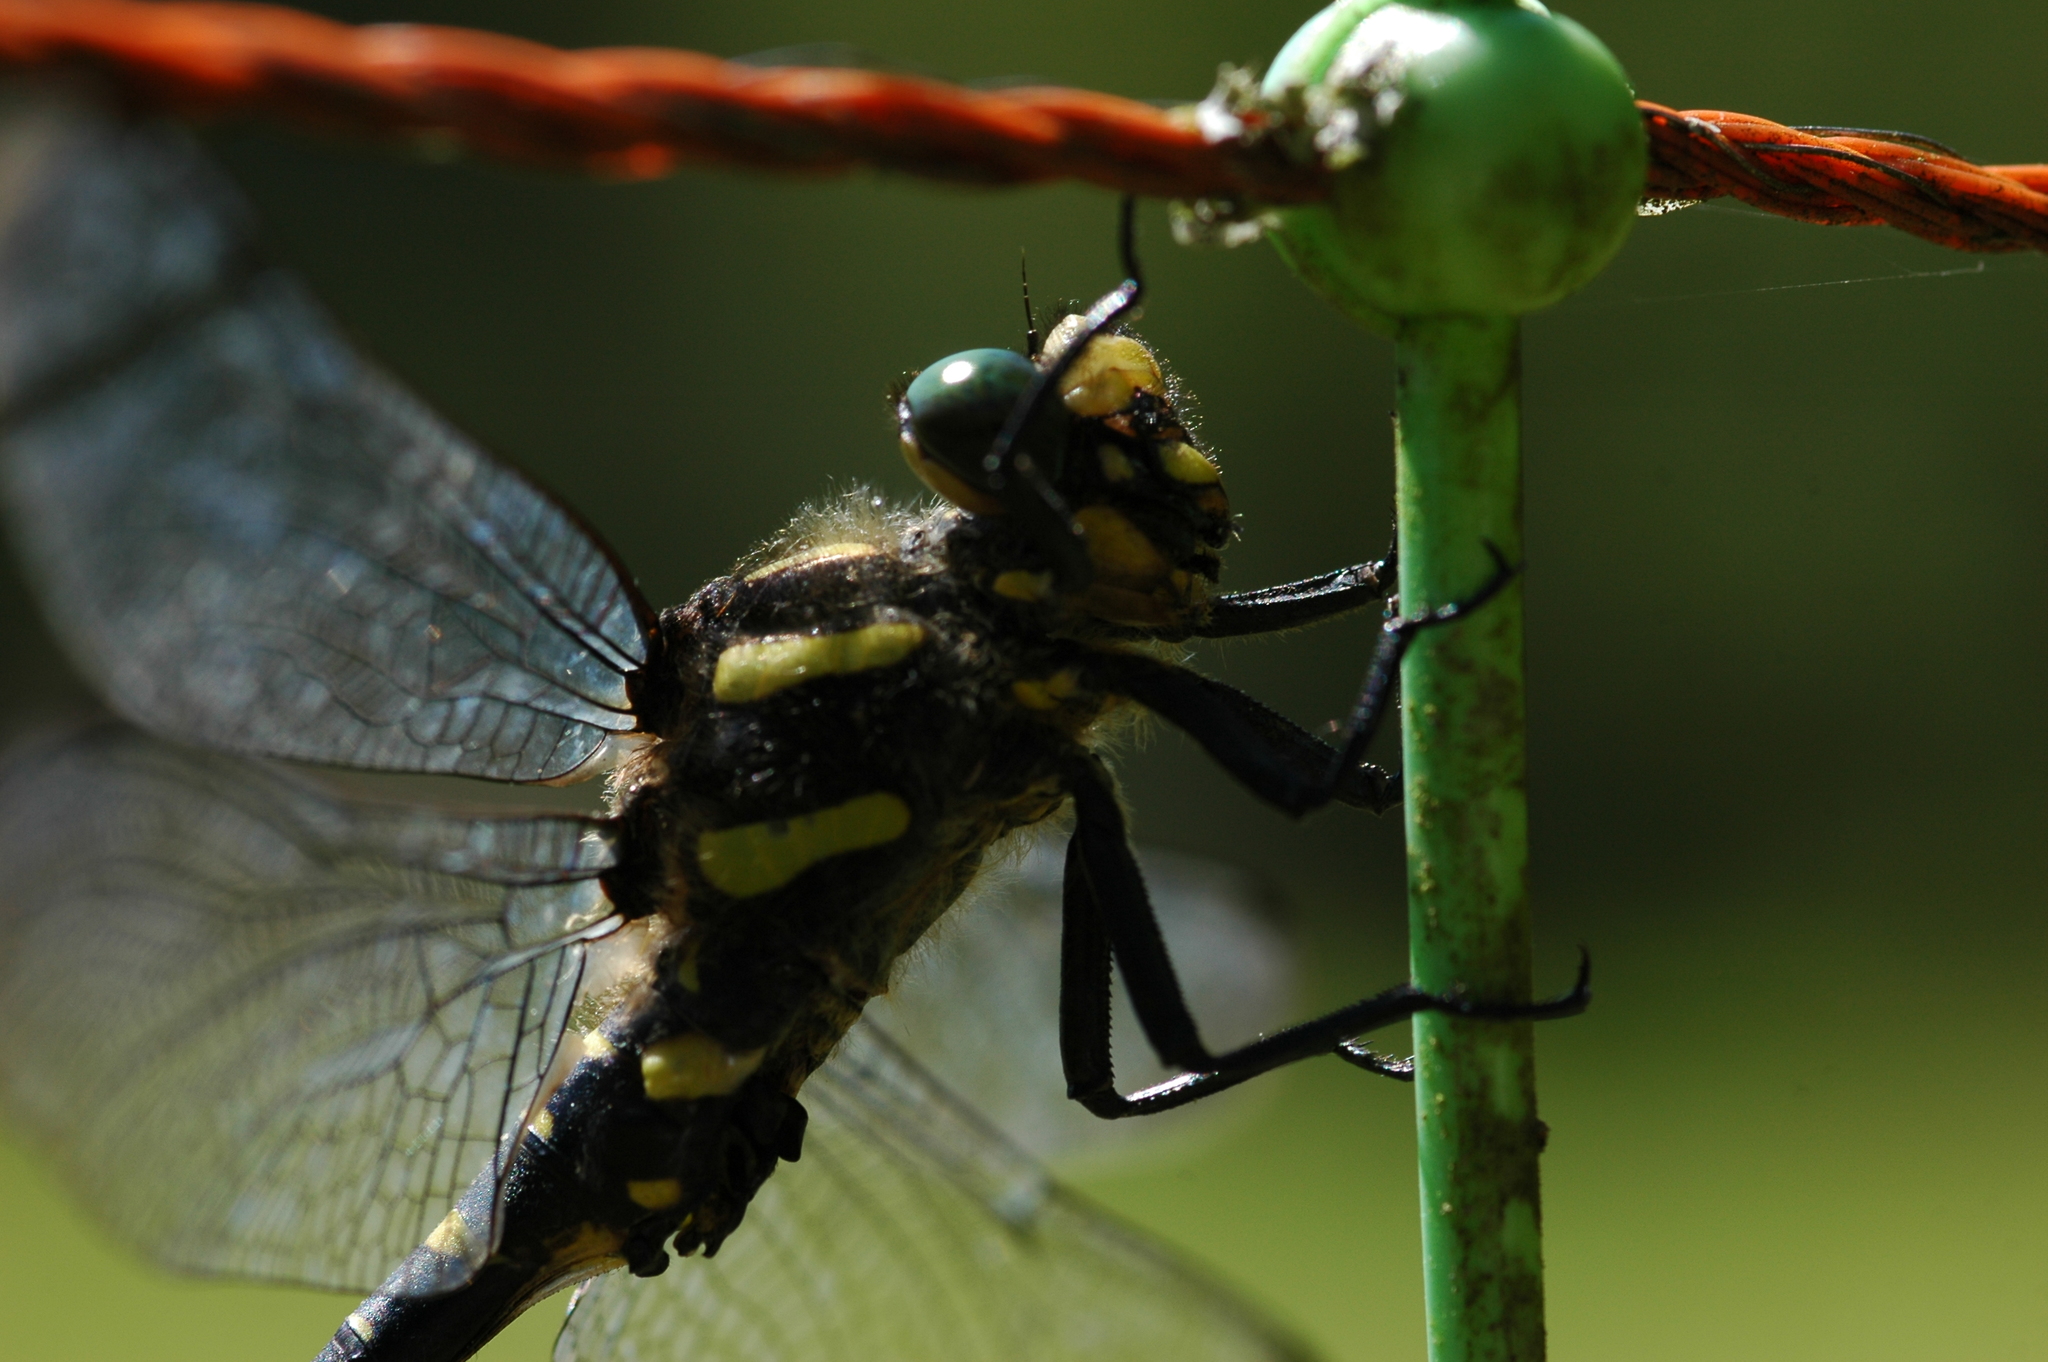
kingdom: Animalia
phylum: Arthropoda
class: Insecta
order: Odonata
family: Cordulegastridae
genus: Cordulegaster
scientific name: Cordulegaster bidentata
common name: Sombre goldenring
